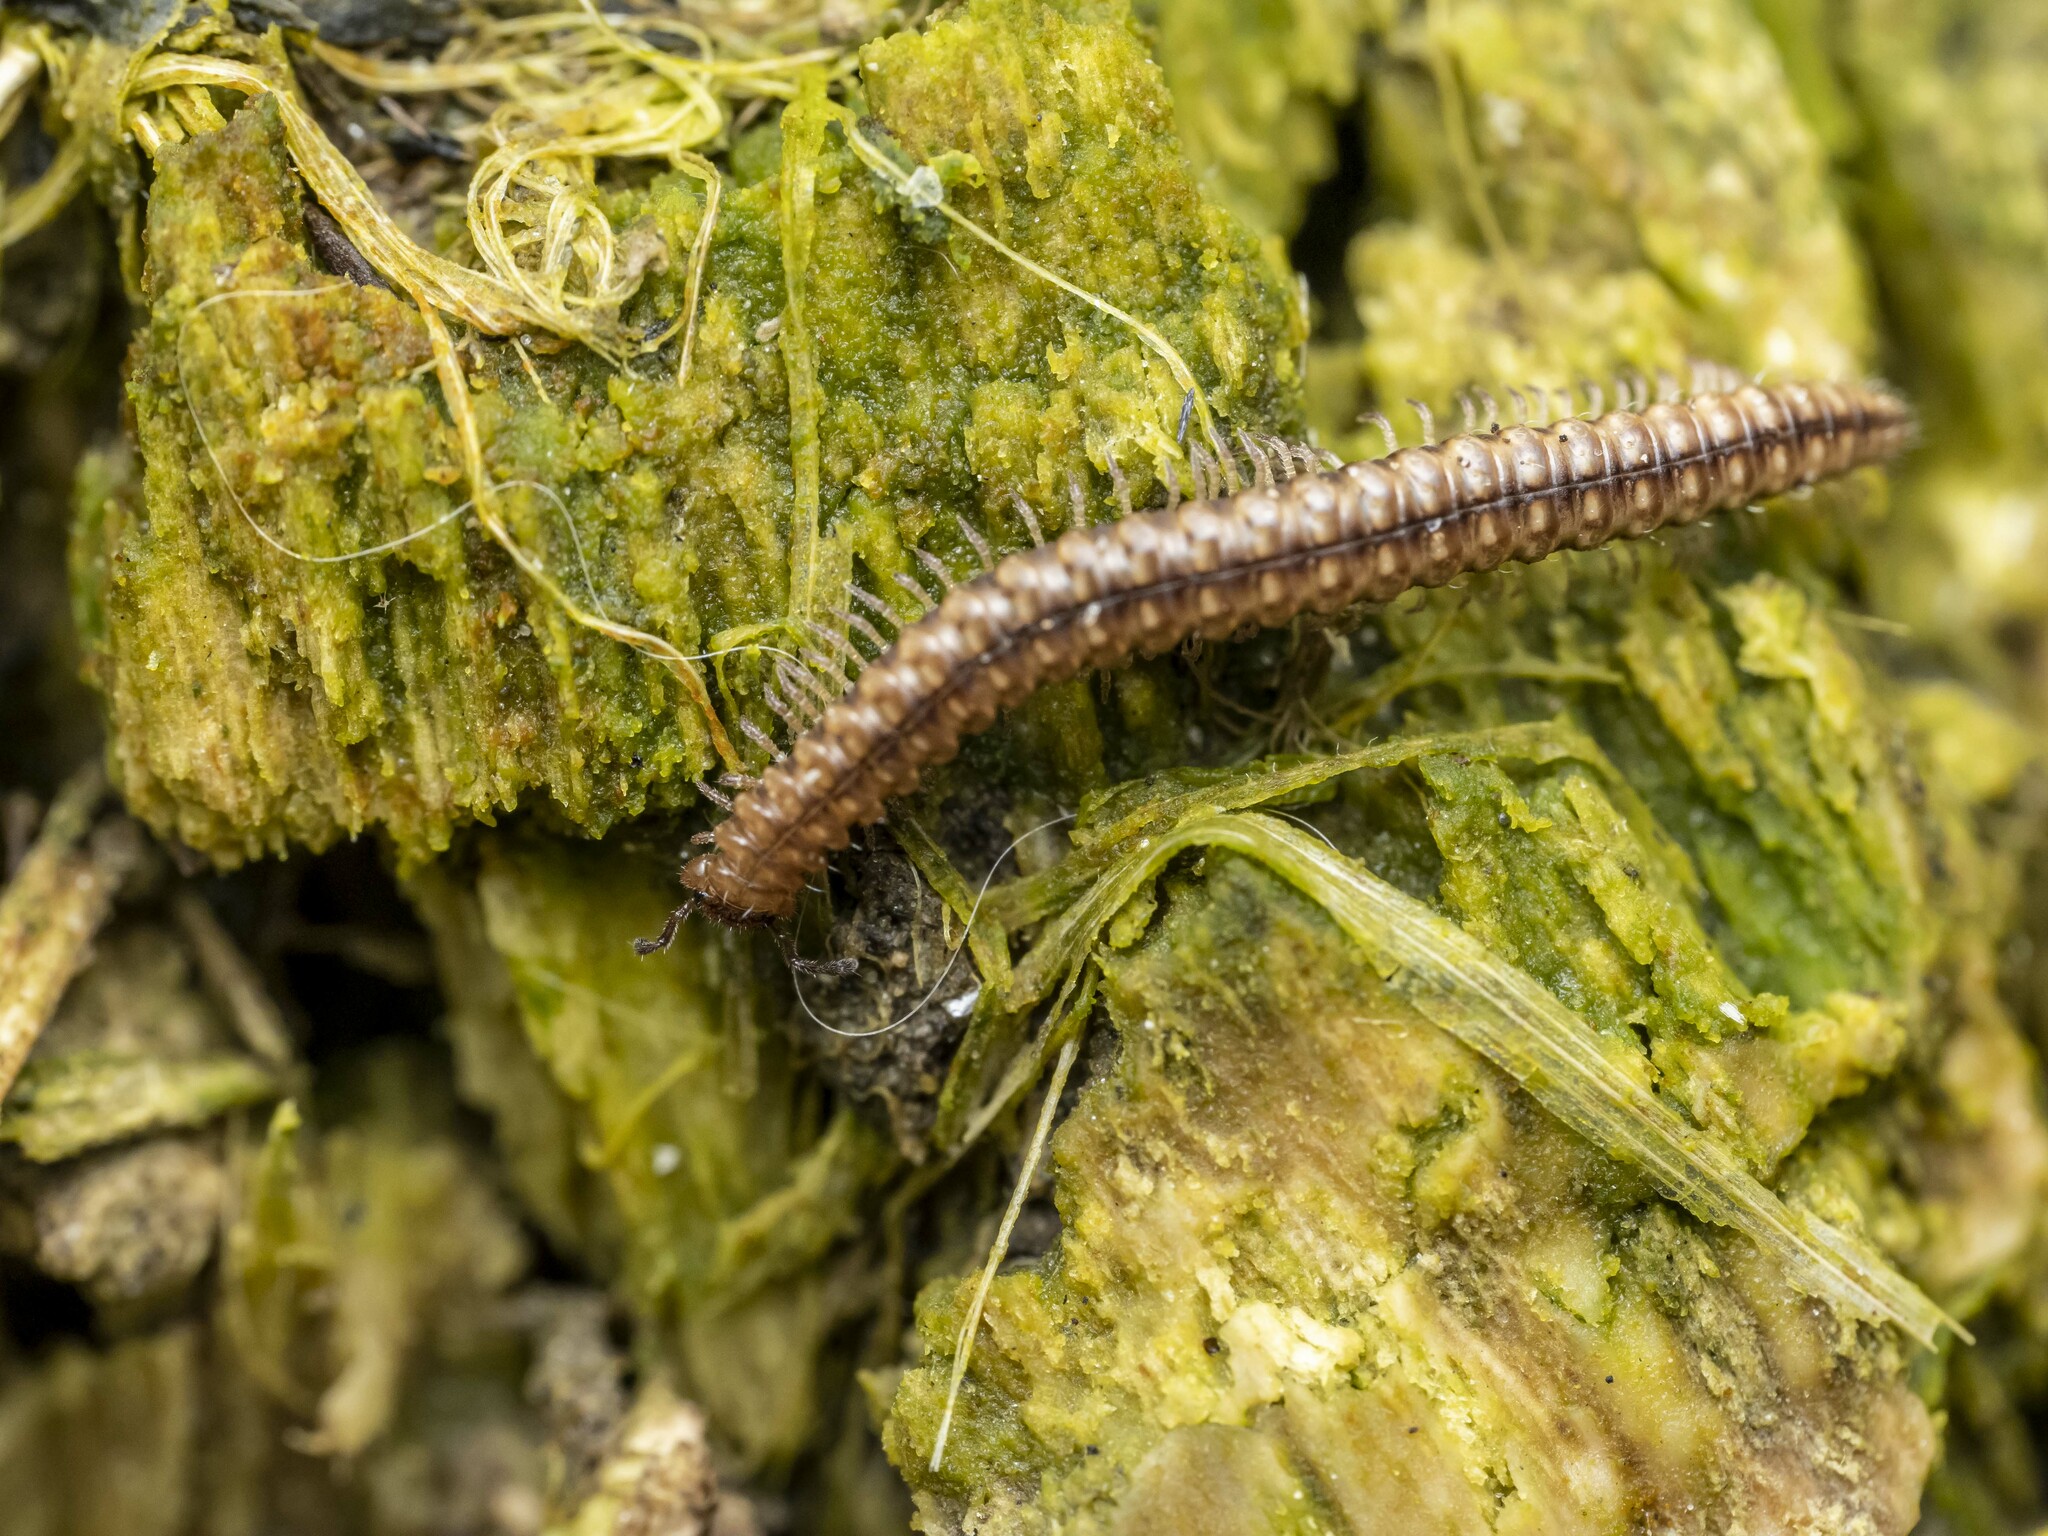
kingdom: Animalia
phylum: Arthropoda
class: Diplopoda
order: Chordeumatida
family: Craspedosomatidae
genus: Craspedosoma
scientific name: Craspedosoma rawlinsii
